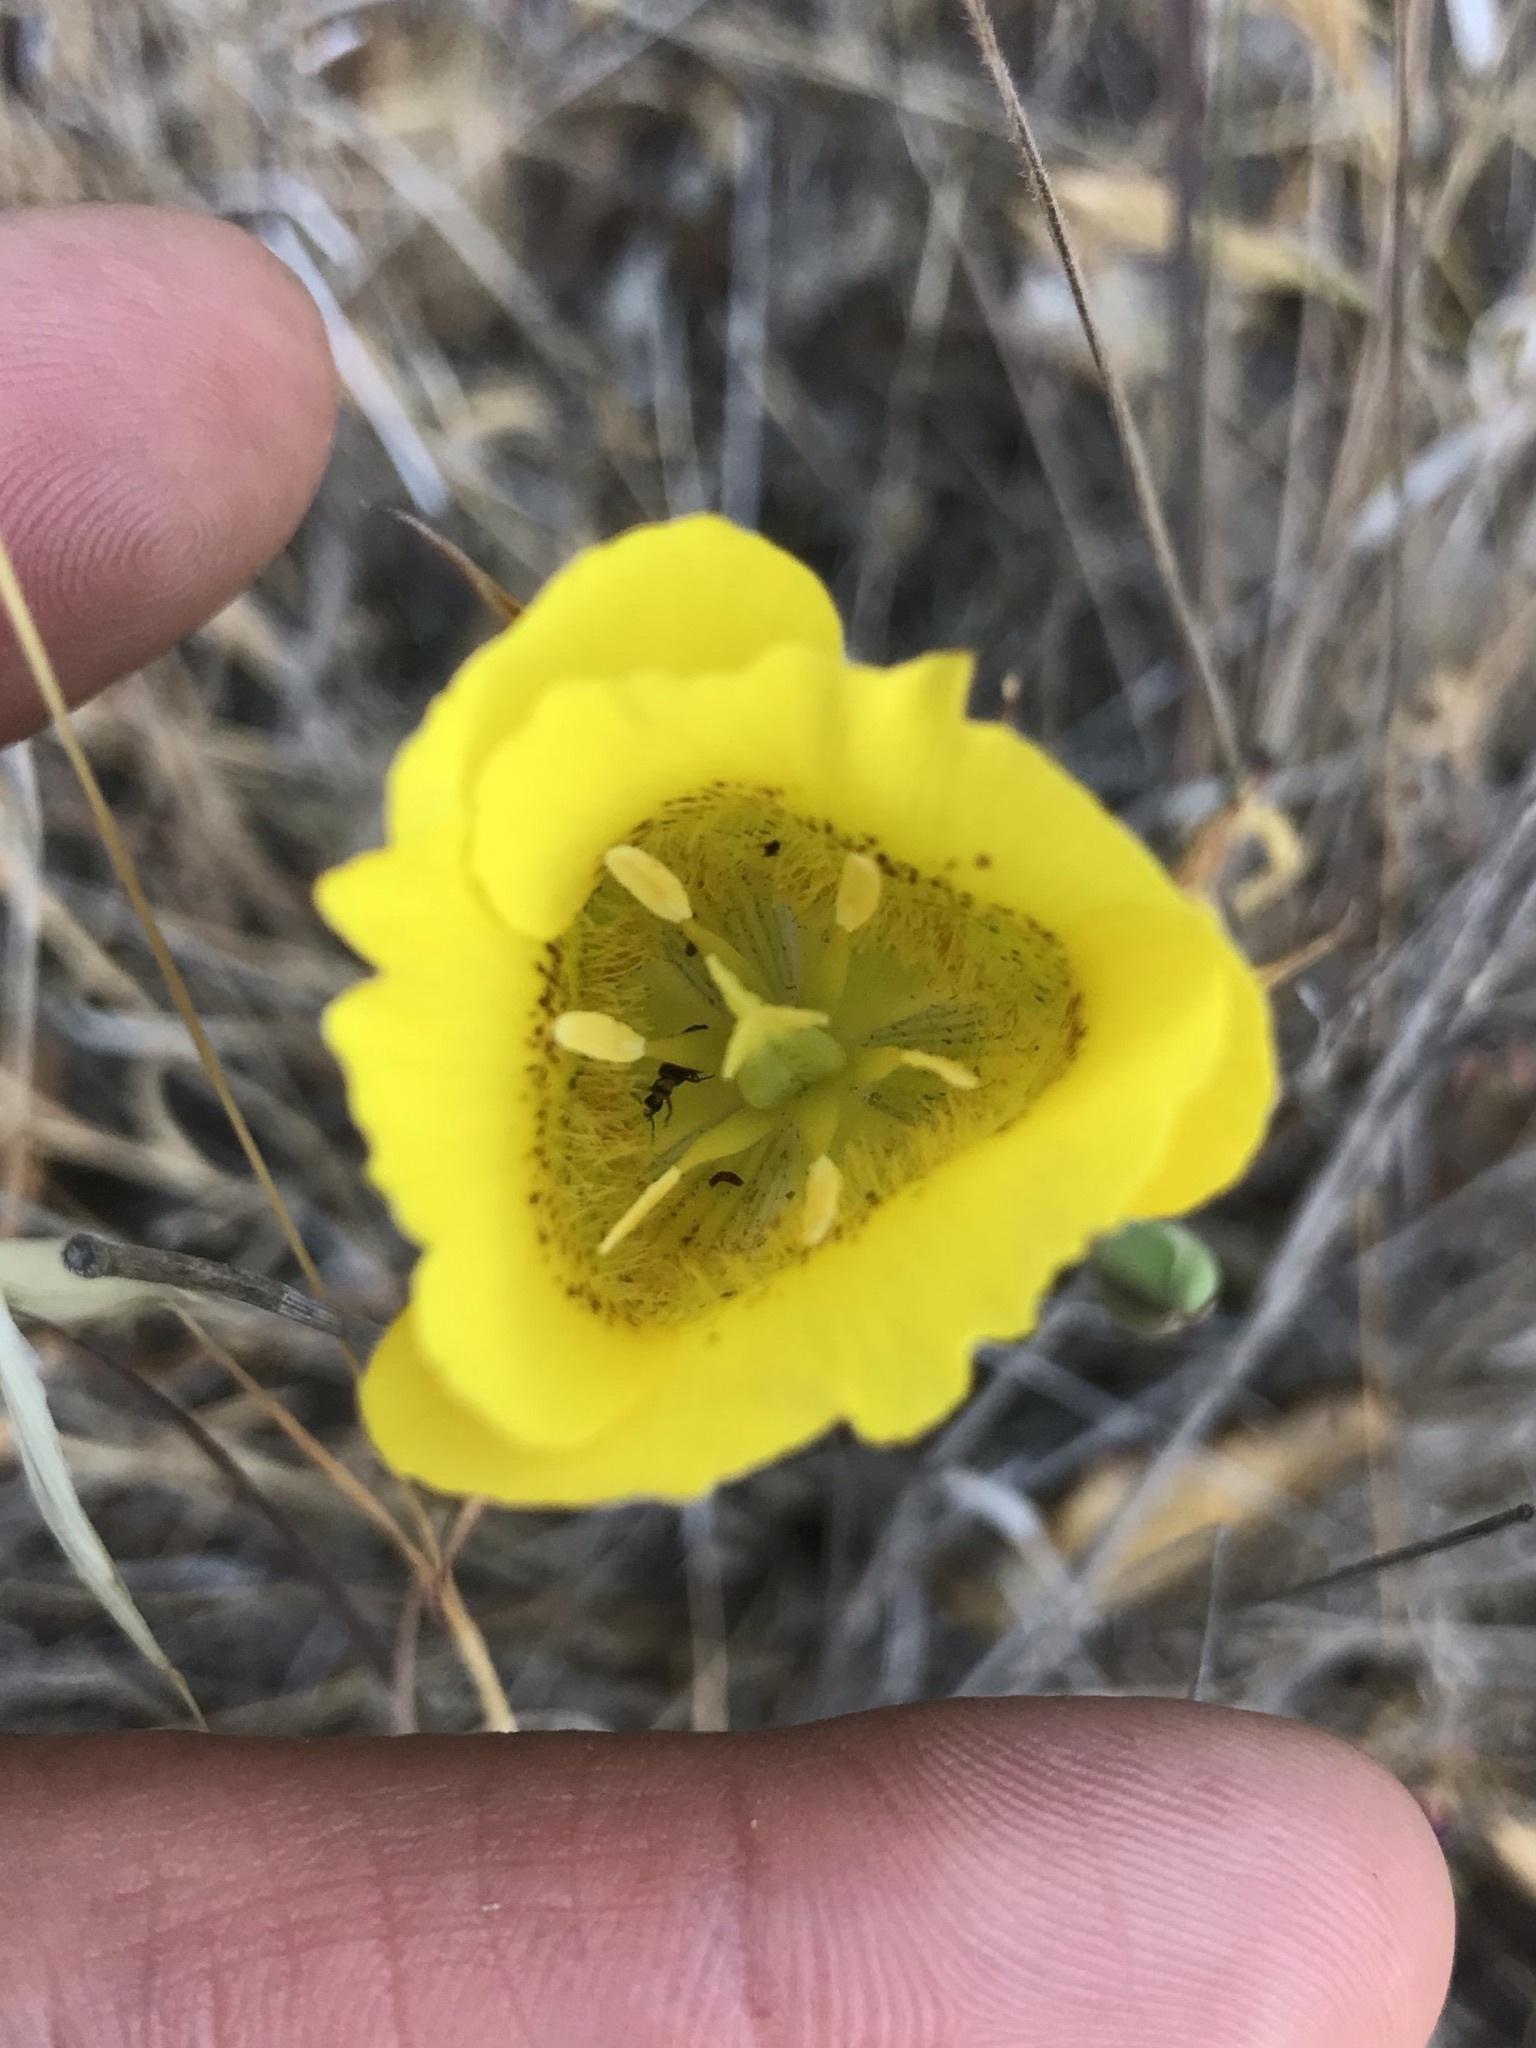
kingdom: Plantae
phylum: Tracheophyta
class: Liliopsida
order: Liliales
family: Liliaceae
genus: Calochortus
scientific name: Calochortus luteus
